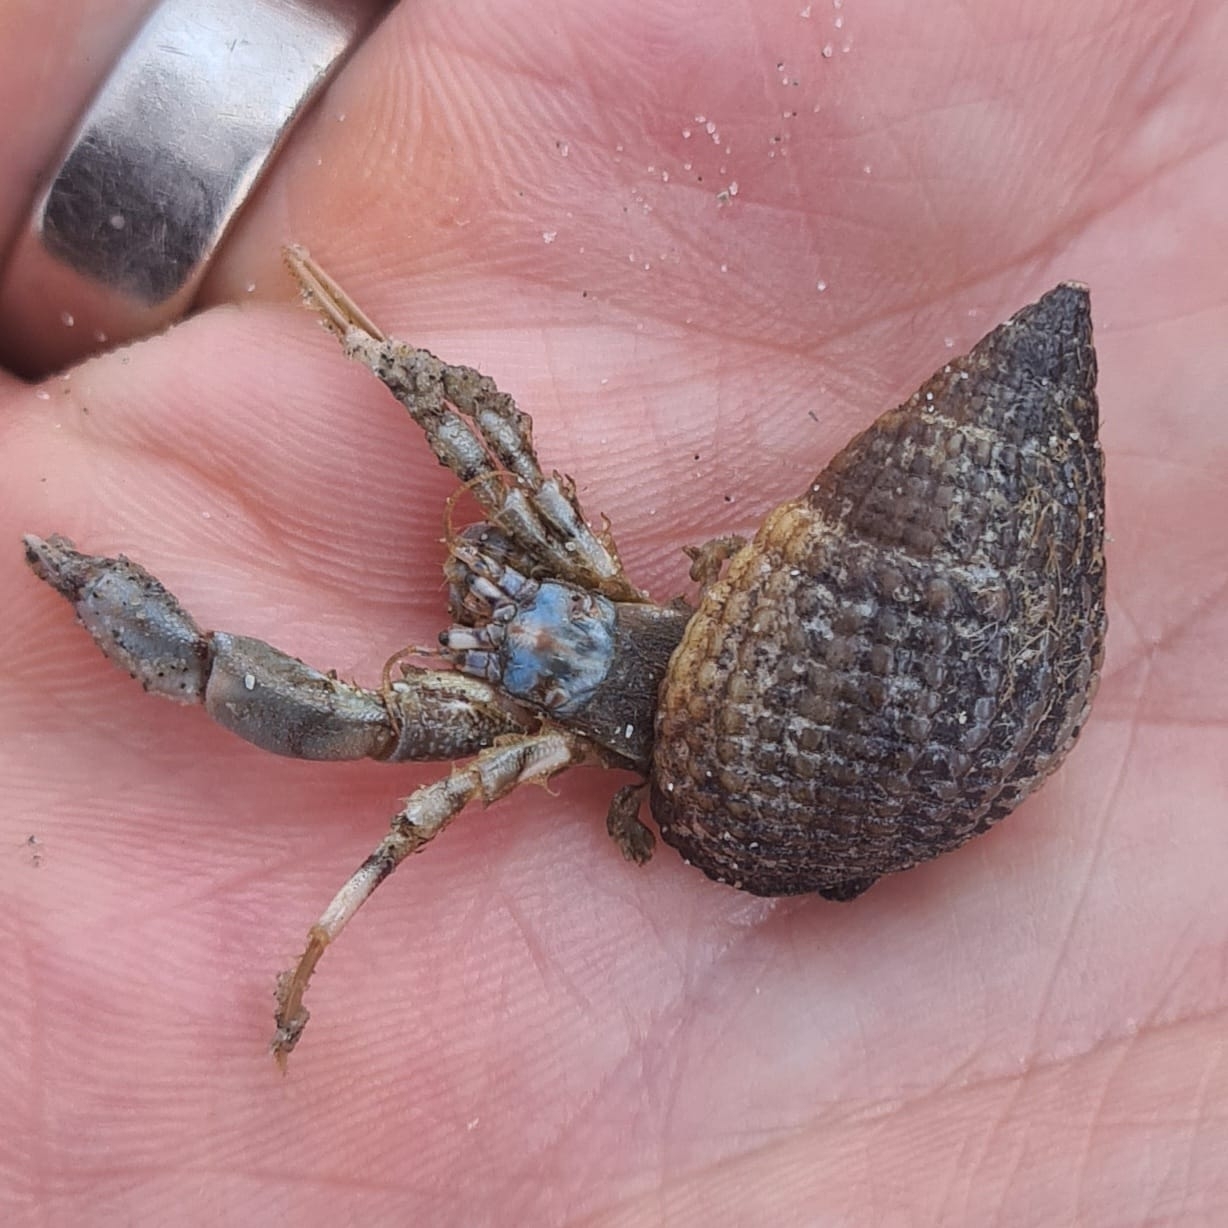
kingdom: Animalia
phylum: Arthropoda
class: Malacostraca
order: Decapoda
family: Diogenidae
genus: Diogenes
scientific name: Diogenes pugilator
